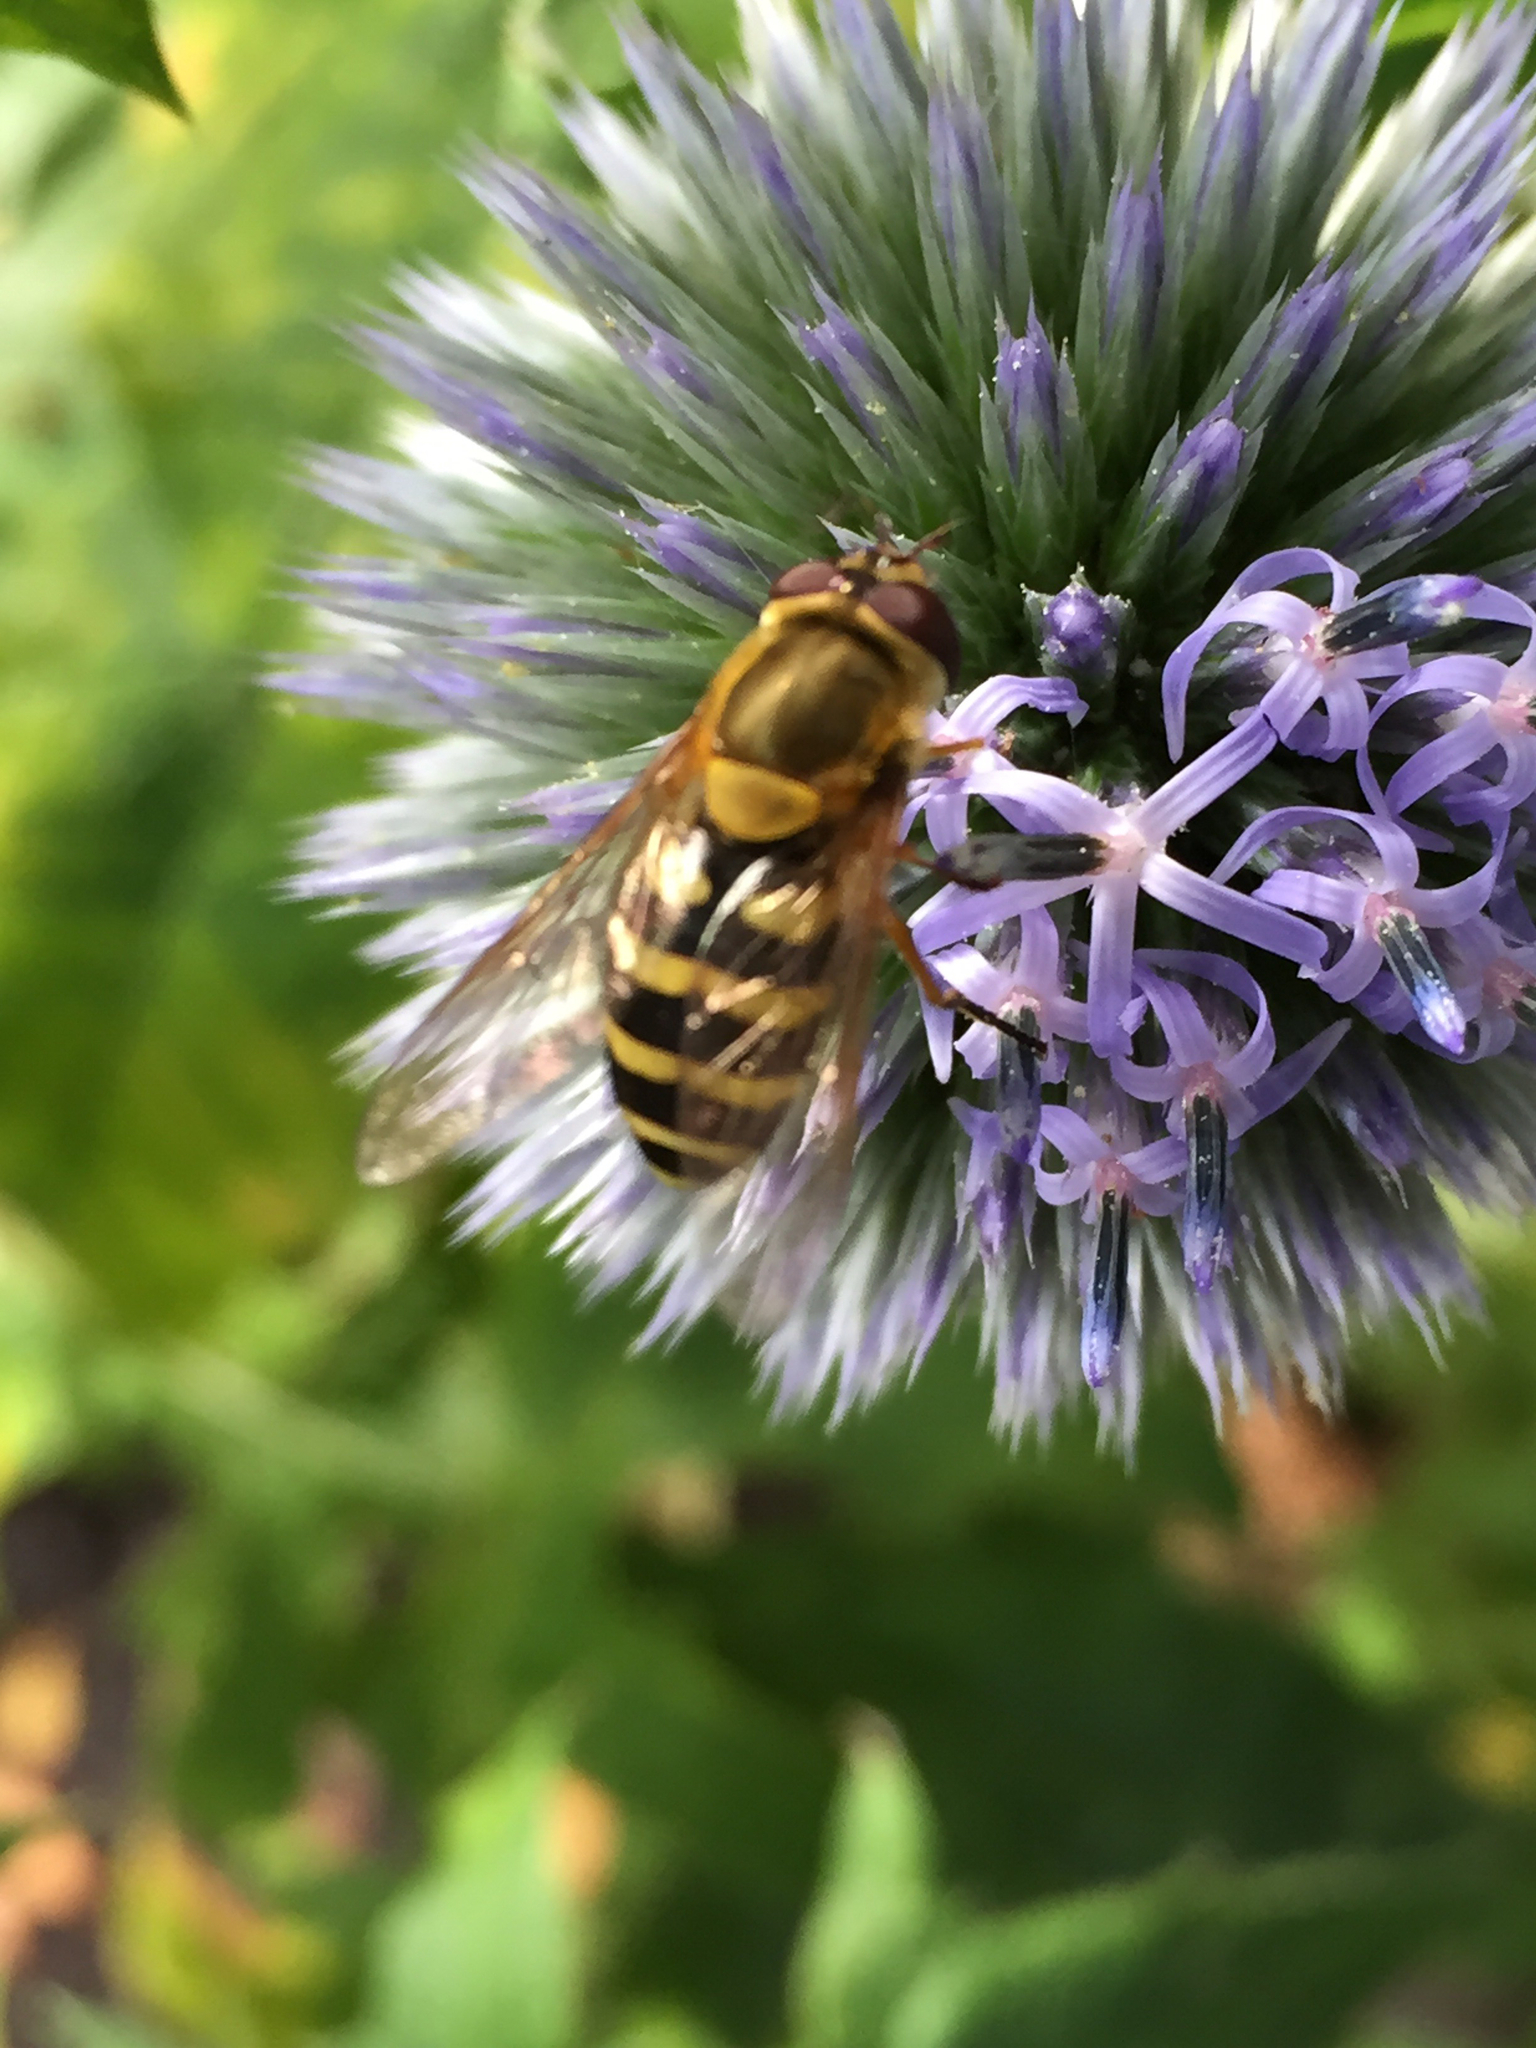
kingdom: Animalia
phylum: Arthropoda
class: Insecta
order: Diptera
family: Syrphidae
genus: Syrphus
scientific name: Syrphus ribesii
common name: Common flower fly
